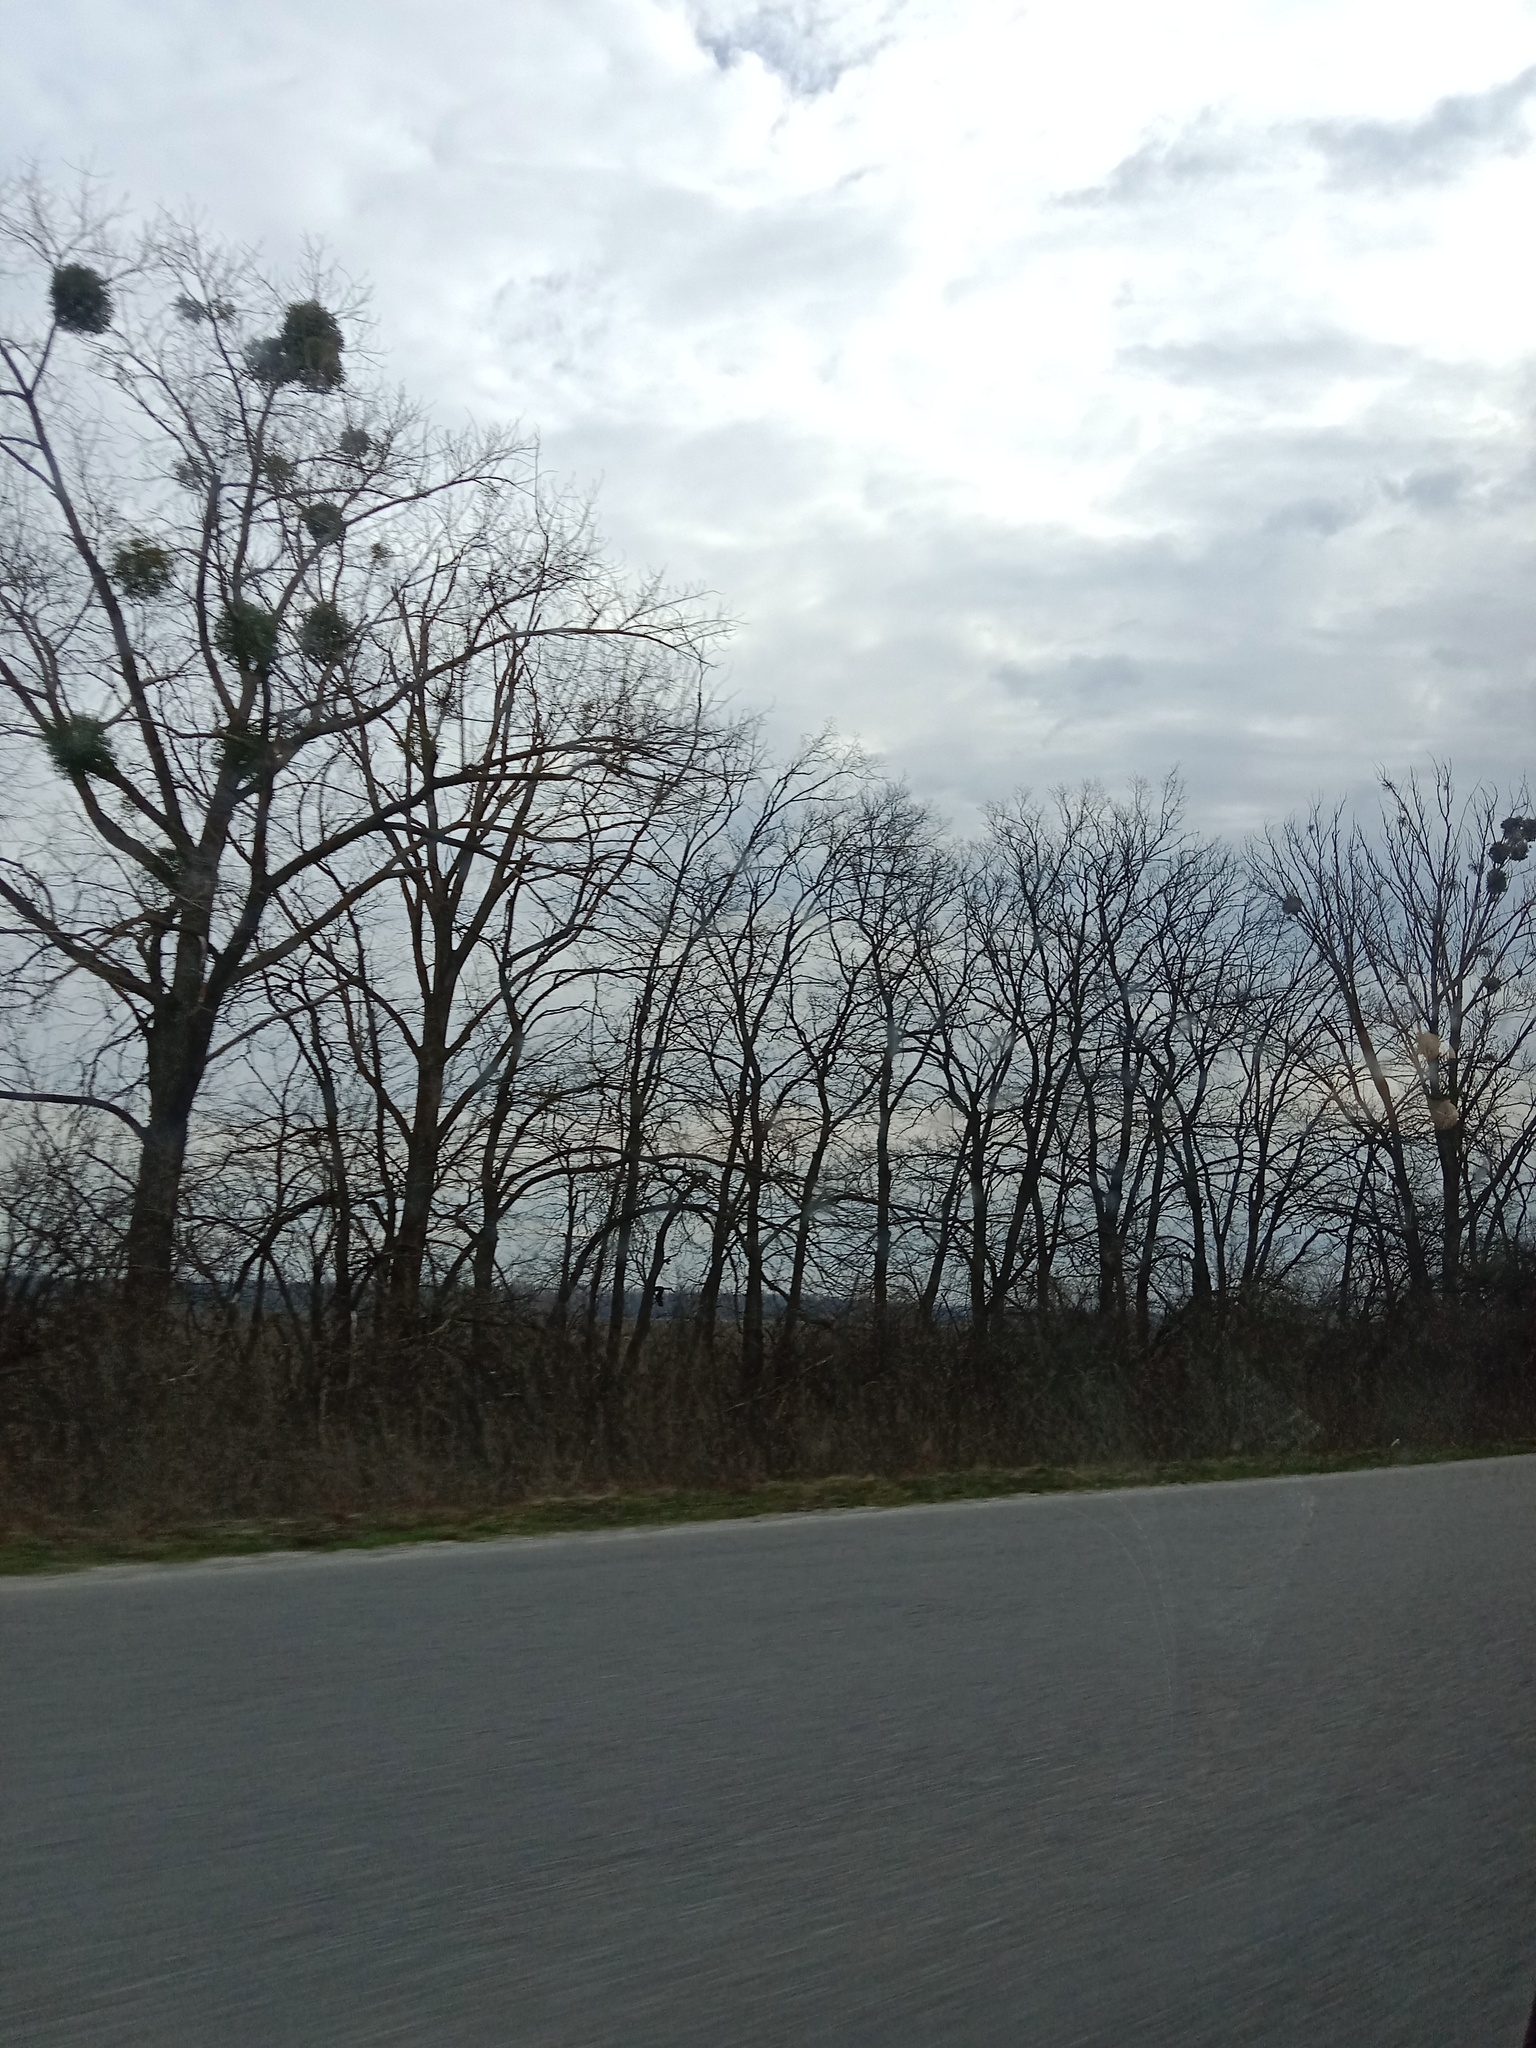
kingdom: Plantae
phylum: Tracheophyta
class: Magnoliopsida
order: Santalales
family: Viscaceae
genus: Viscum
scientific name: Viscum album
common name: Mistletoe
